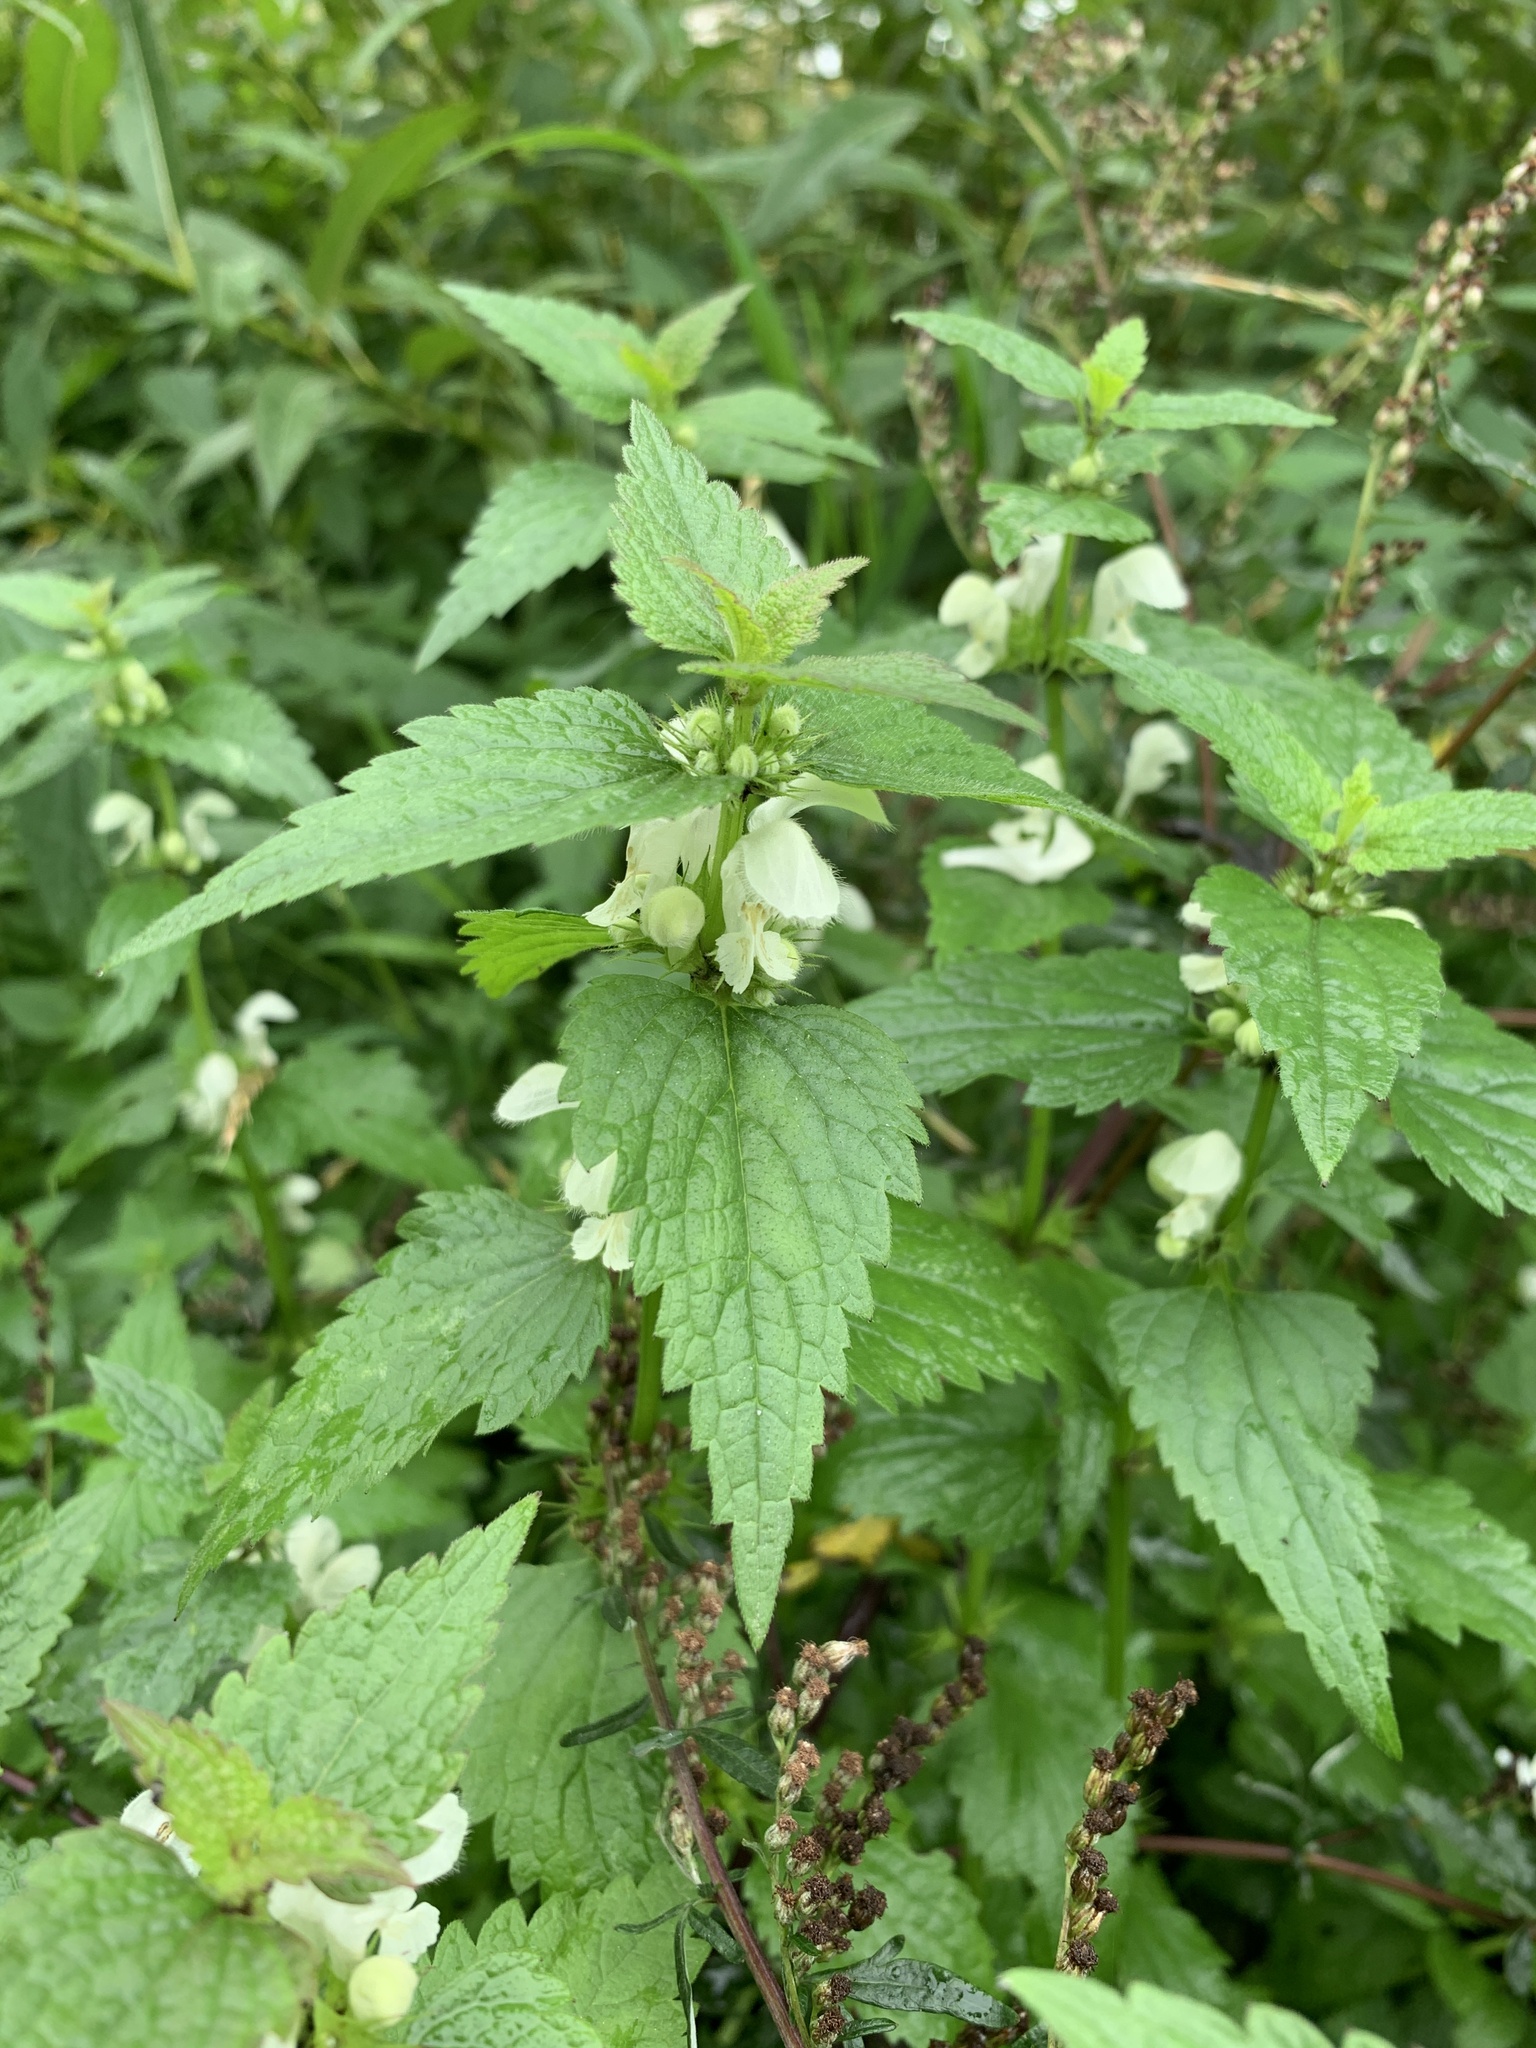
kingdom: Plantae
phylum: Tracheophyta
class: Magnoliopsida
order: Lamiales
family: Lamiaceae
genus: Lamium
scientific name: Lamium album
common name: White dead-nettle
